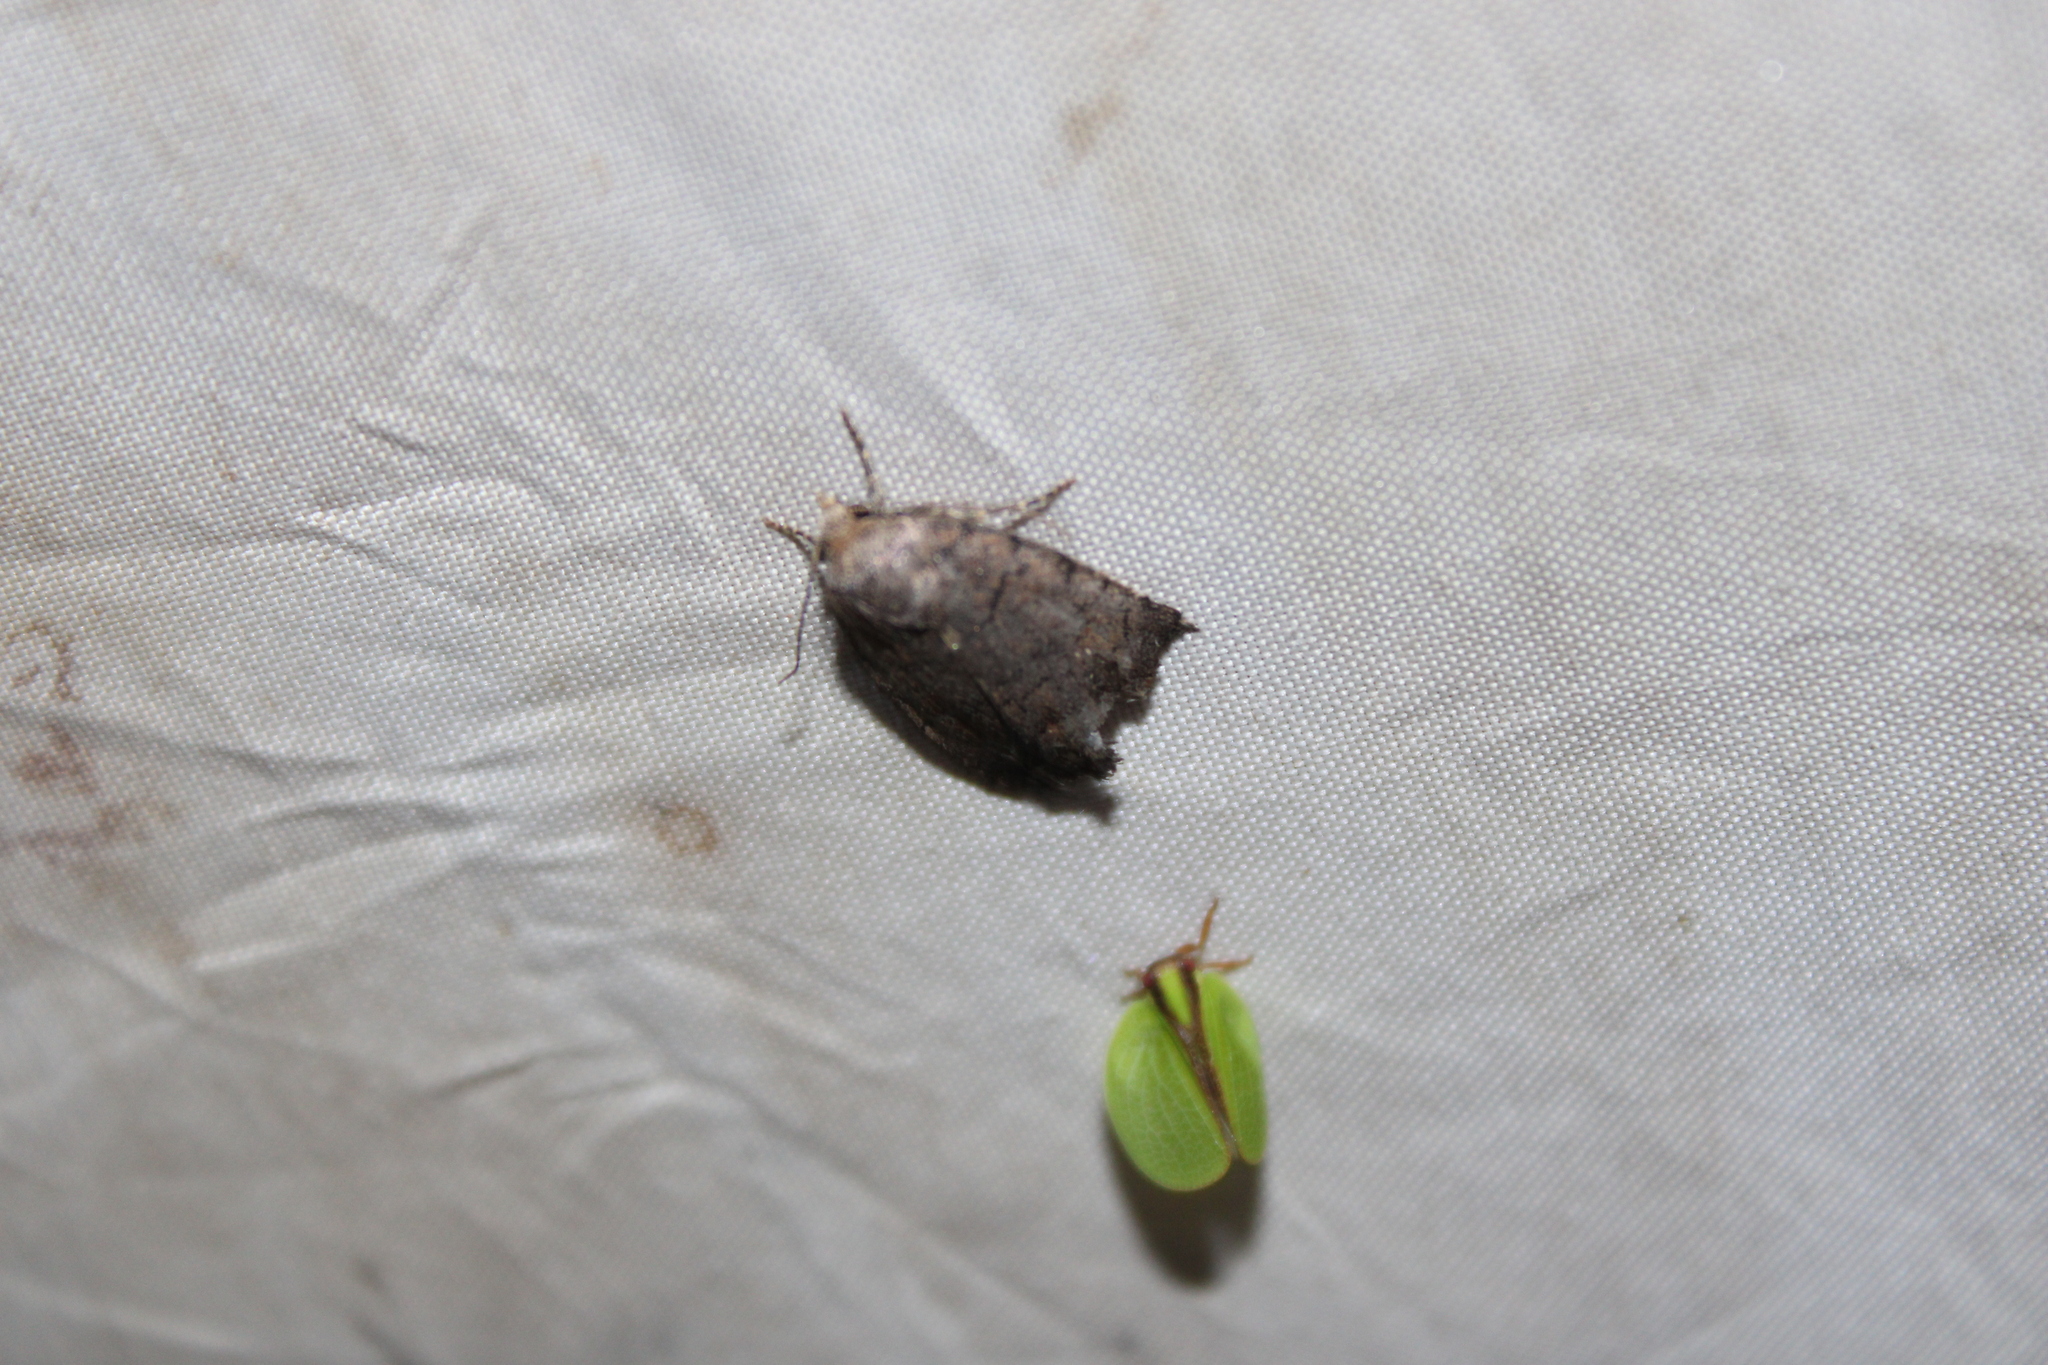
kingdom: Animalia
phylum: Arthropoda
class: Insecta
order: Lepidoptera
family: Noctuidae
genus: Athetis
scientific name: Athetis tarda
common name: Slowpoke moth
